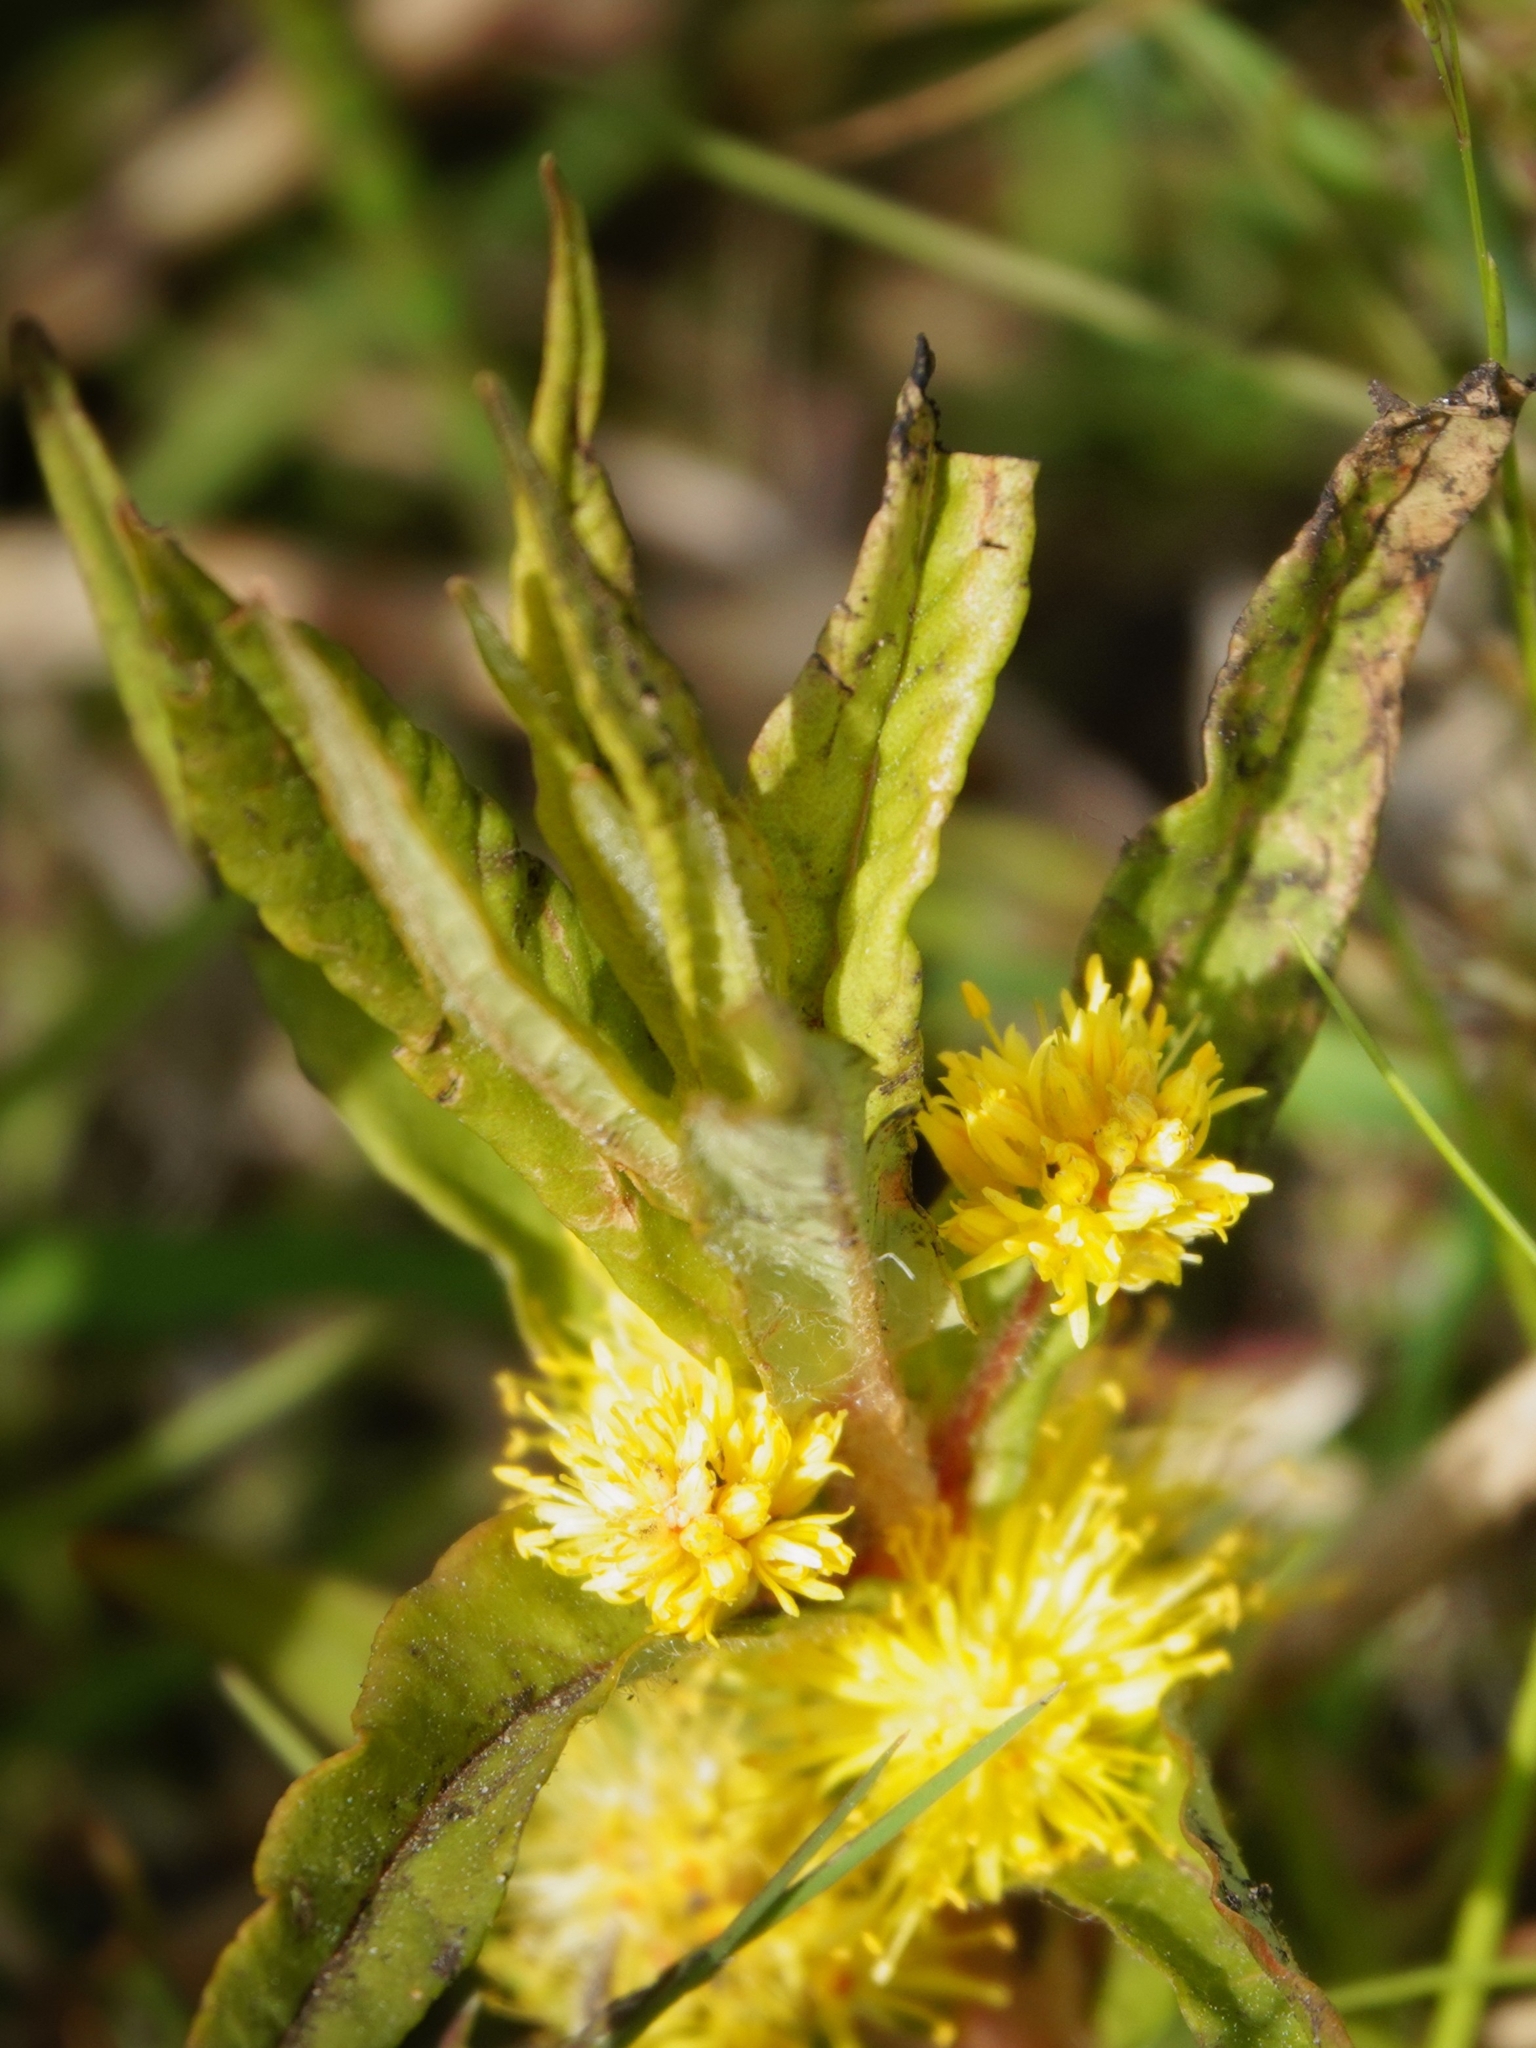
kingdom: Plantae
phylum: Tracheophyta
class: Magnoliopsida
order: Ericales
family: Primulaceae
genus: Lysimachia
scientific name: Lysimachia thyrsiflora
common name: Tufted loosestrife
